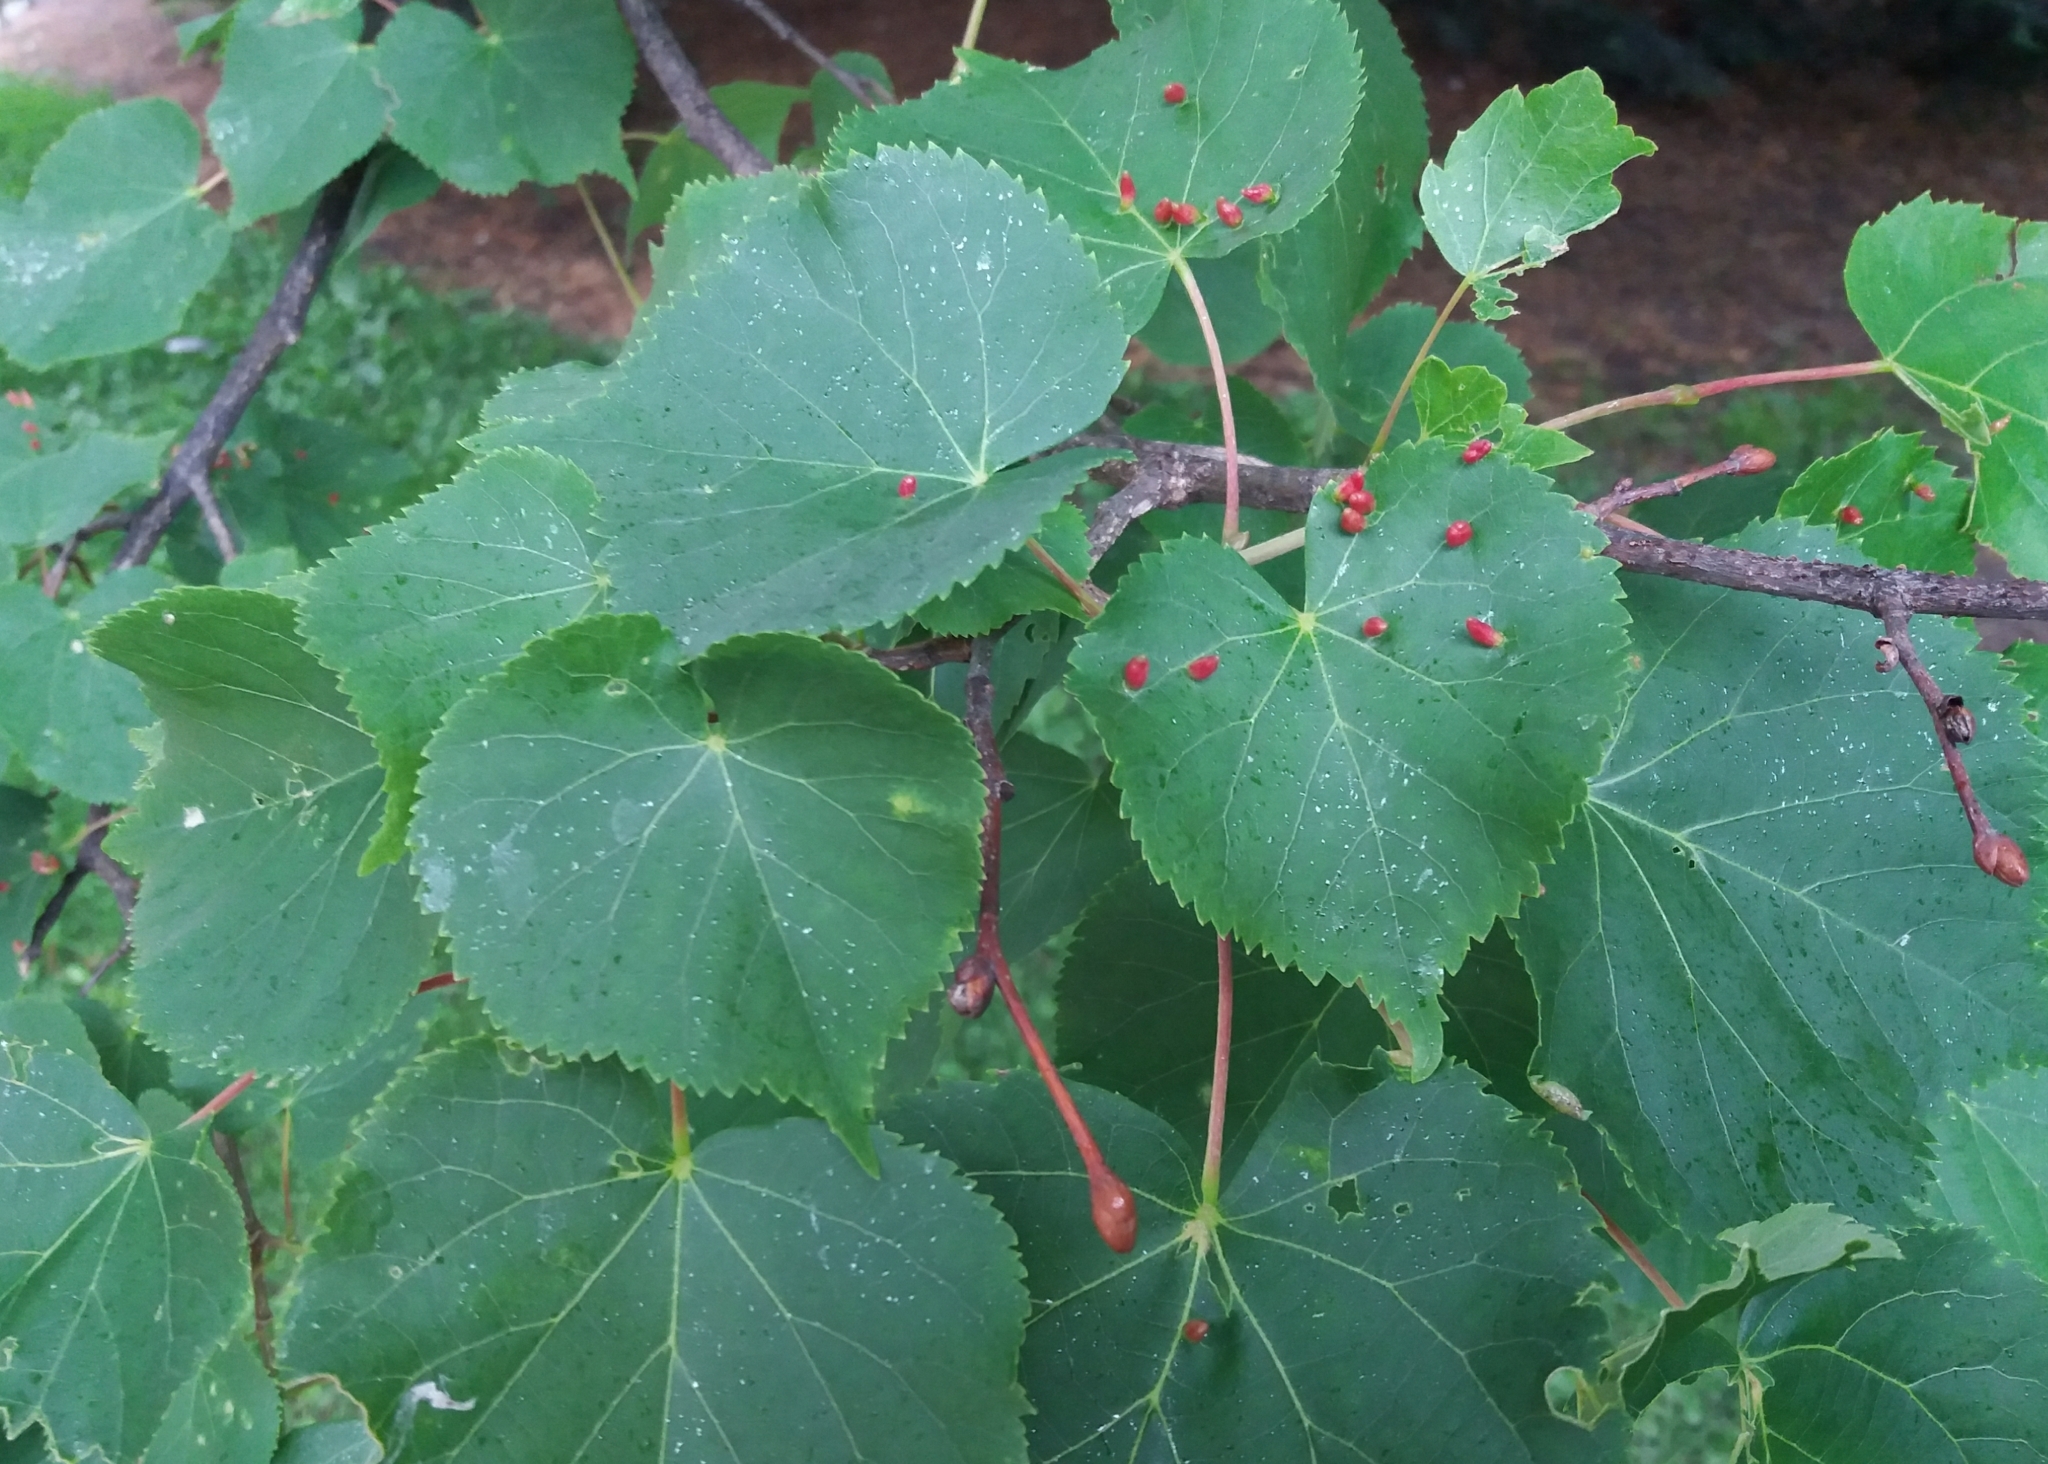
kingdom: Animalia
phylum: Arthropoda
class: Arachnida
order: Trombidiformes
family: Eriophyidae
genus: Eriophyes
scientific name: Eriophyes tiliae
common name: Red nail gall mite
